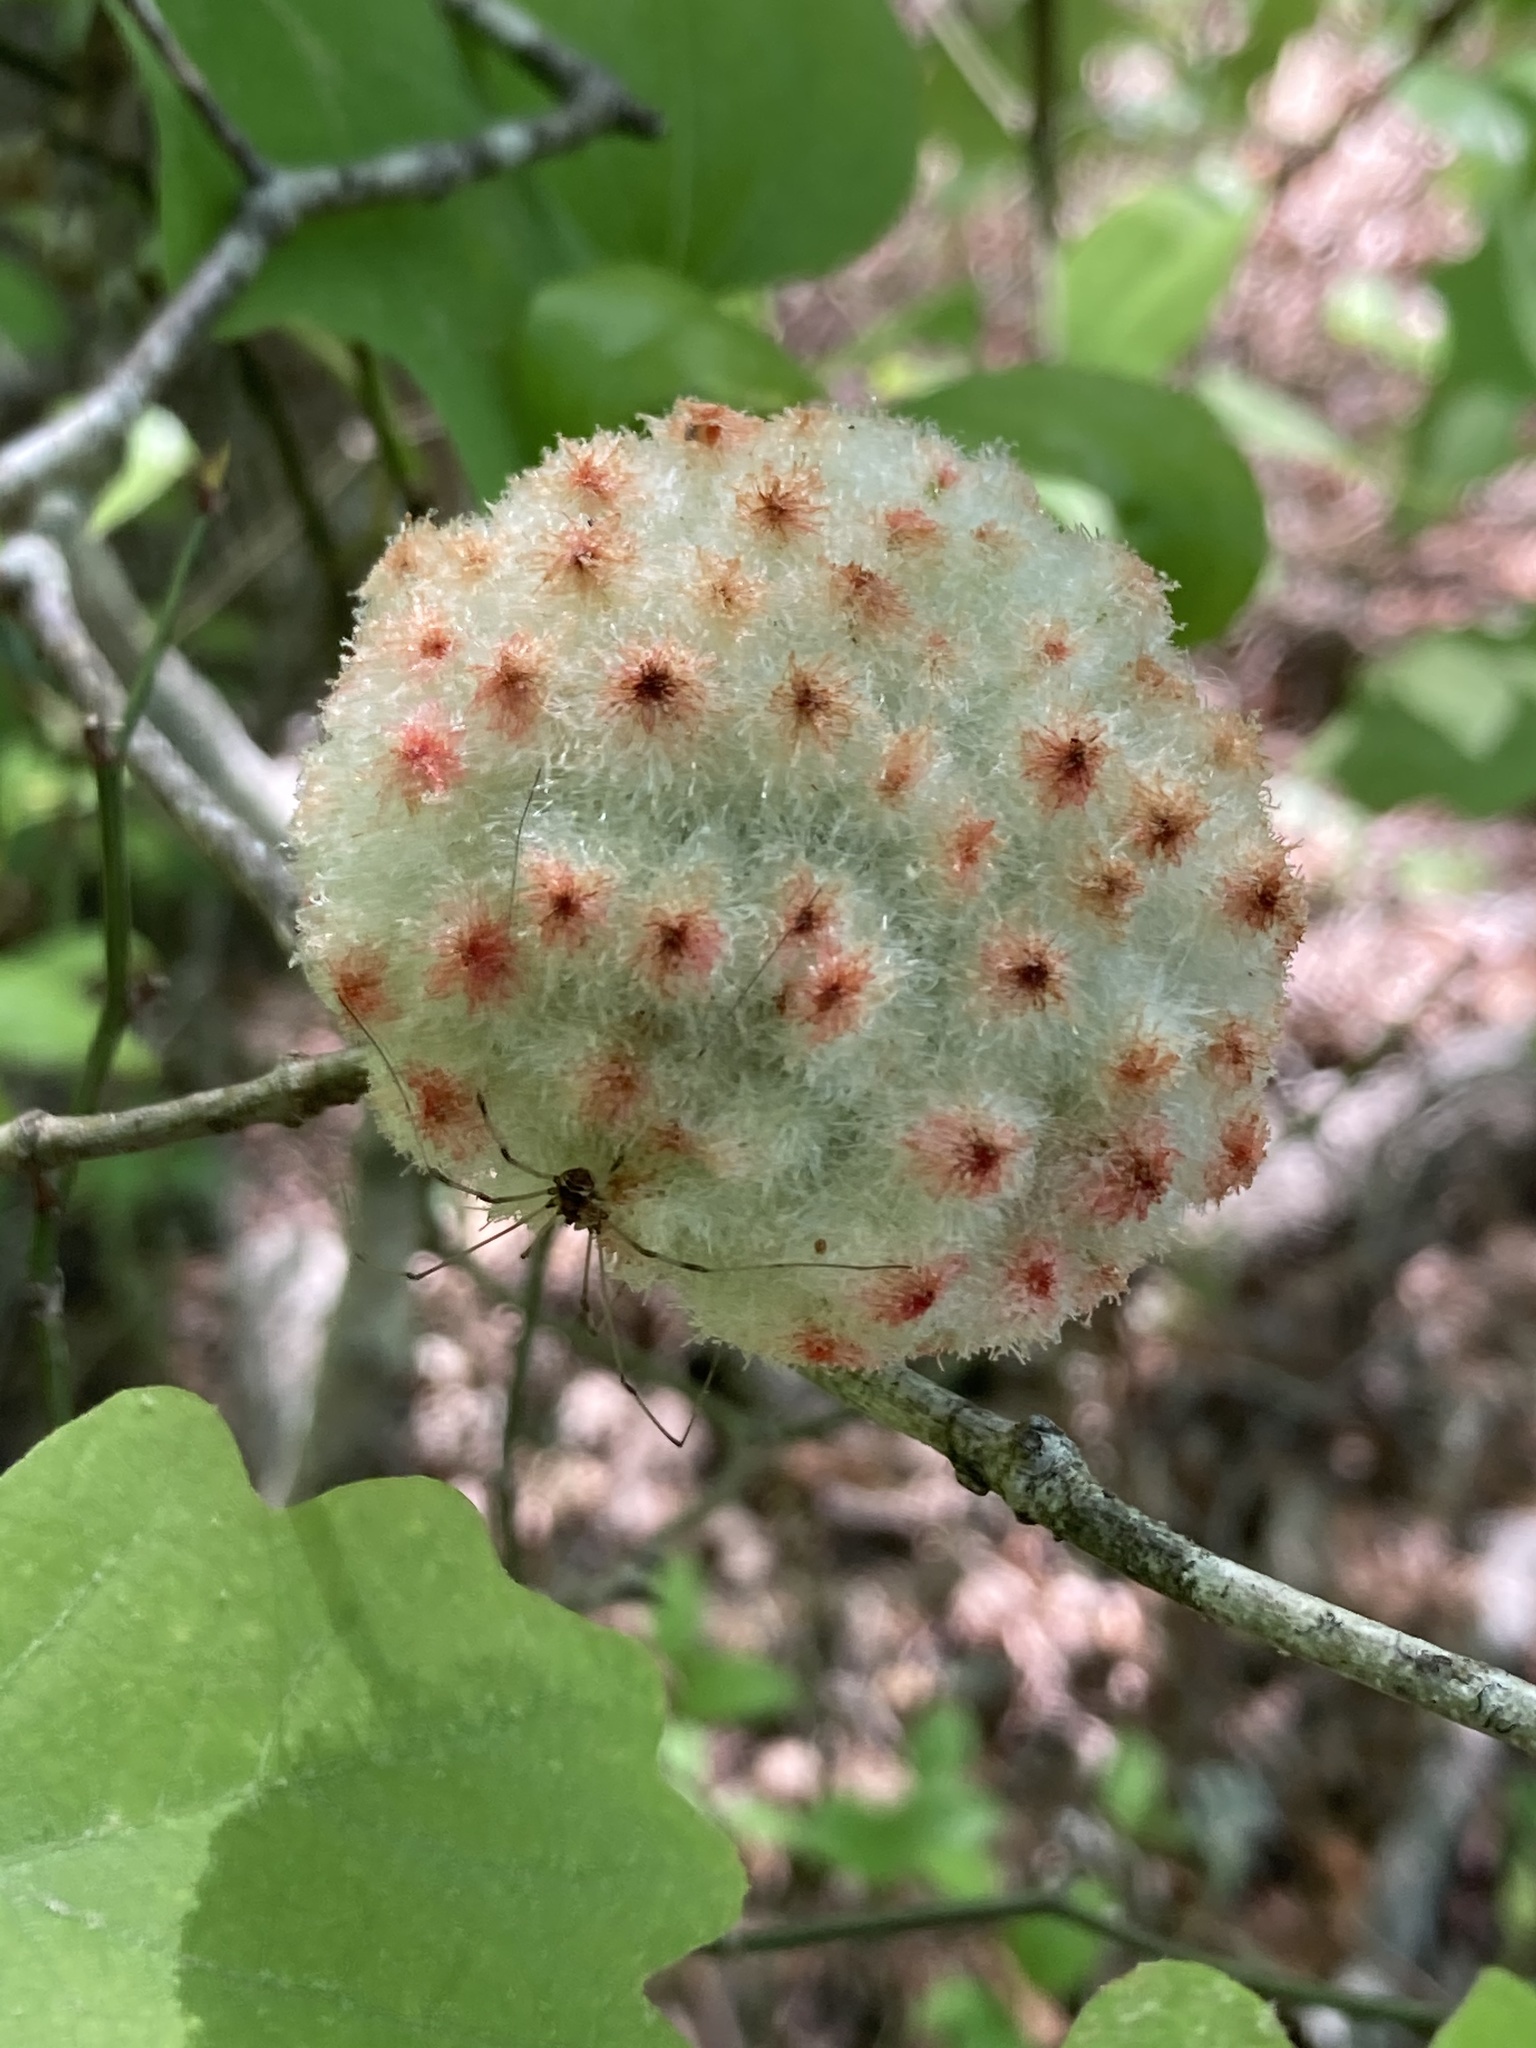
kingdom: Animalia
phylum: Arthropoda
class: Insecta
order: Hymenoptera
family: Cynipidae
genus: Callirhytis
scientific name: Callirhytis
